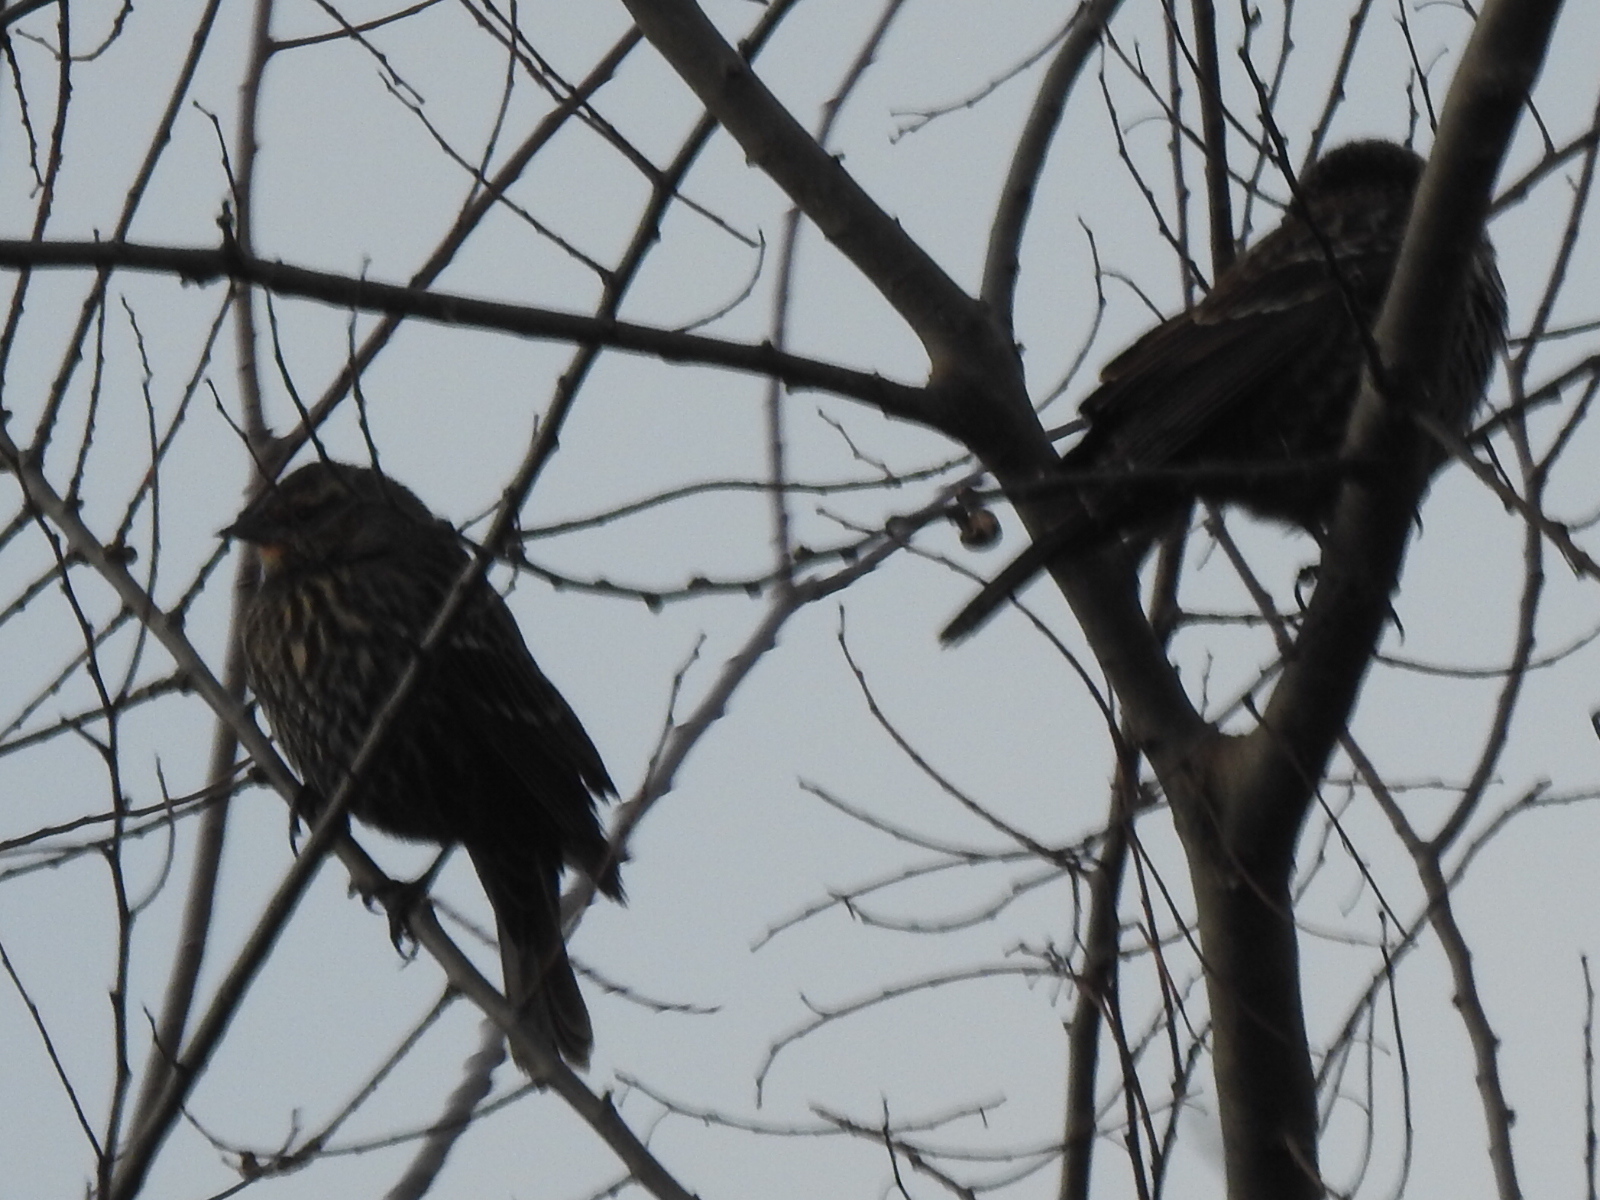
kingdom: Animalia
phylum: Chordata
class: Aves
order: Passeriformes
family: Icteridae
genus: Agelaius
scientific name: Agelaius phoeniceus
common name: Red-winged blackbird
